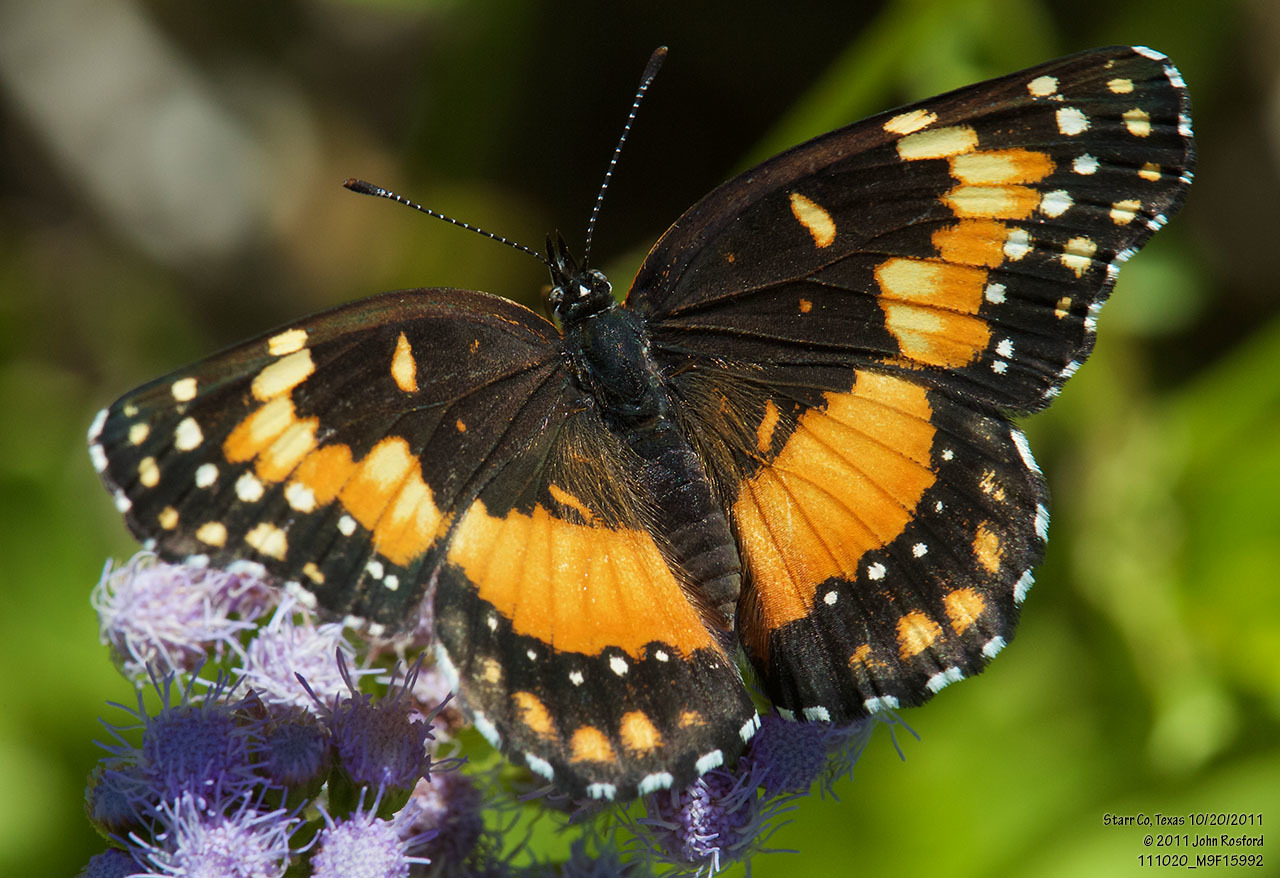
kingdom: Animalia
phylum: Arthropoda
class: Insecta
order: Lepidoptera
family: Nymphalidae
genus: Chlosyne
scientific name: Chlosyne lacinia
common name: Bordered patch
